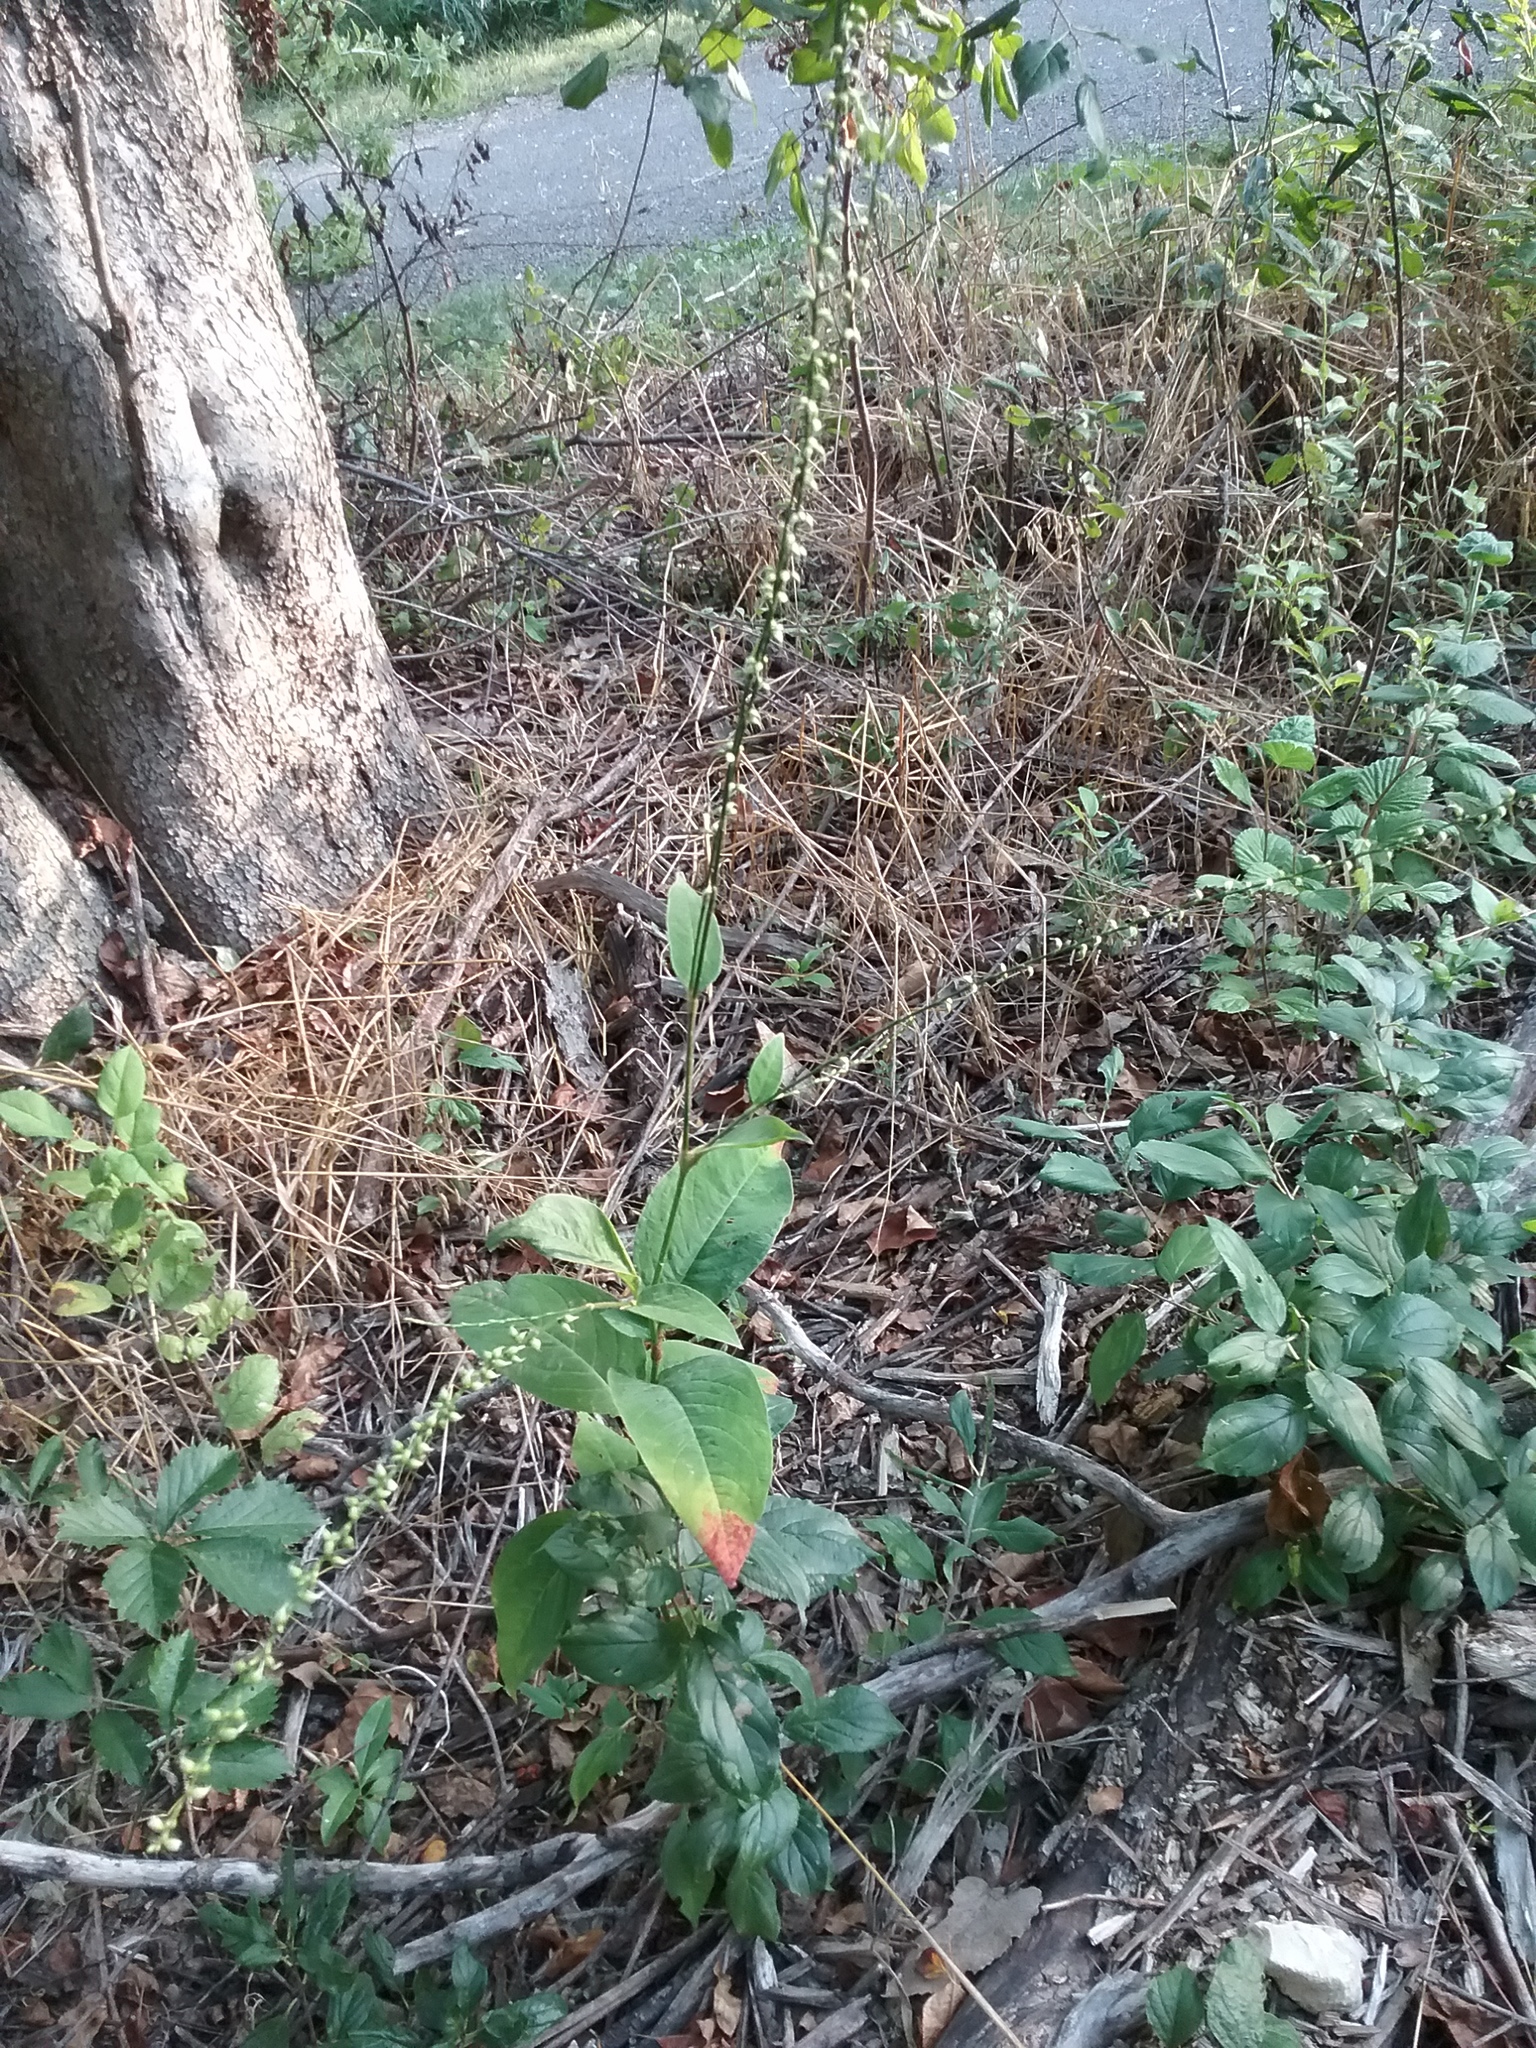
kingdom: Plantae
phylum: Tracheophyta
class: Magnoliopsida
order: Caryophyllales
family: Polygonaceae
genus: Persicaria
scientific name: Persicaria virginiana
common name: Jumpseed
